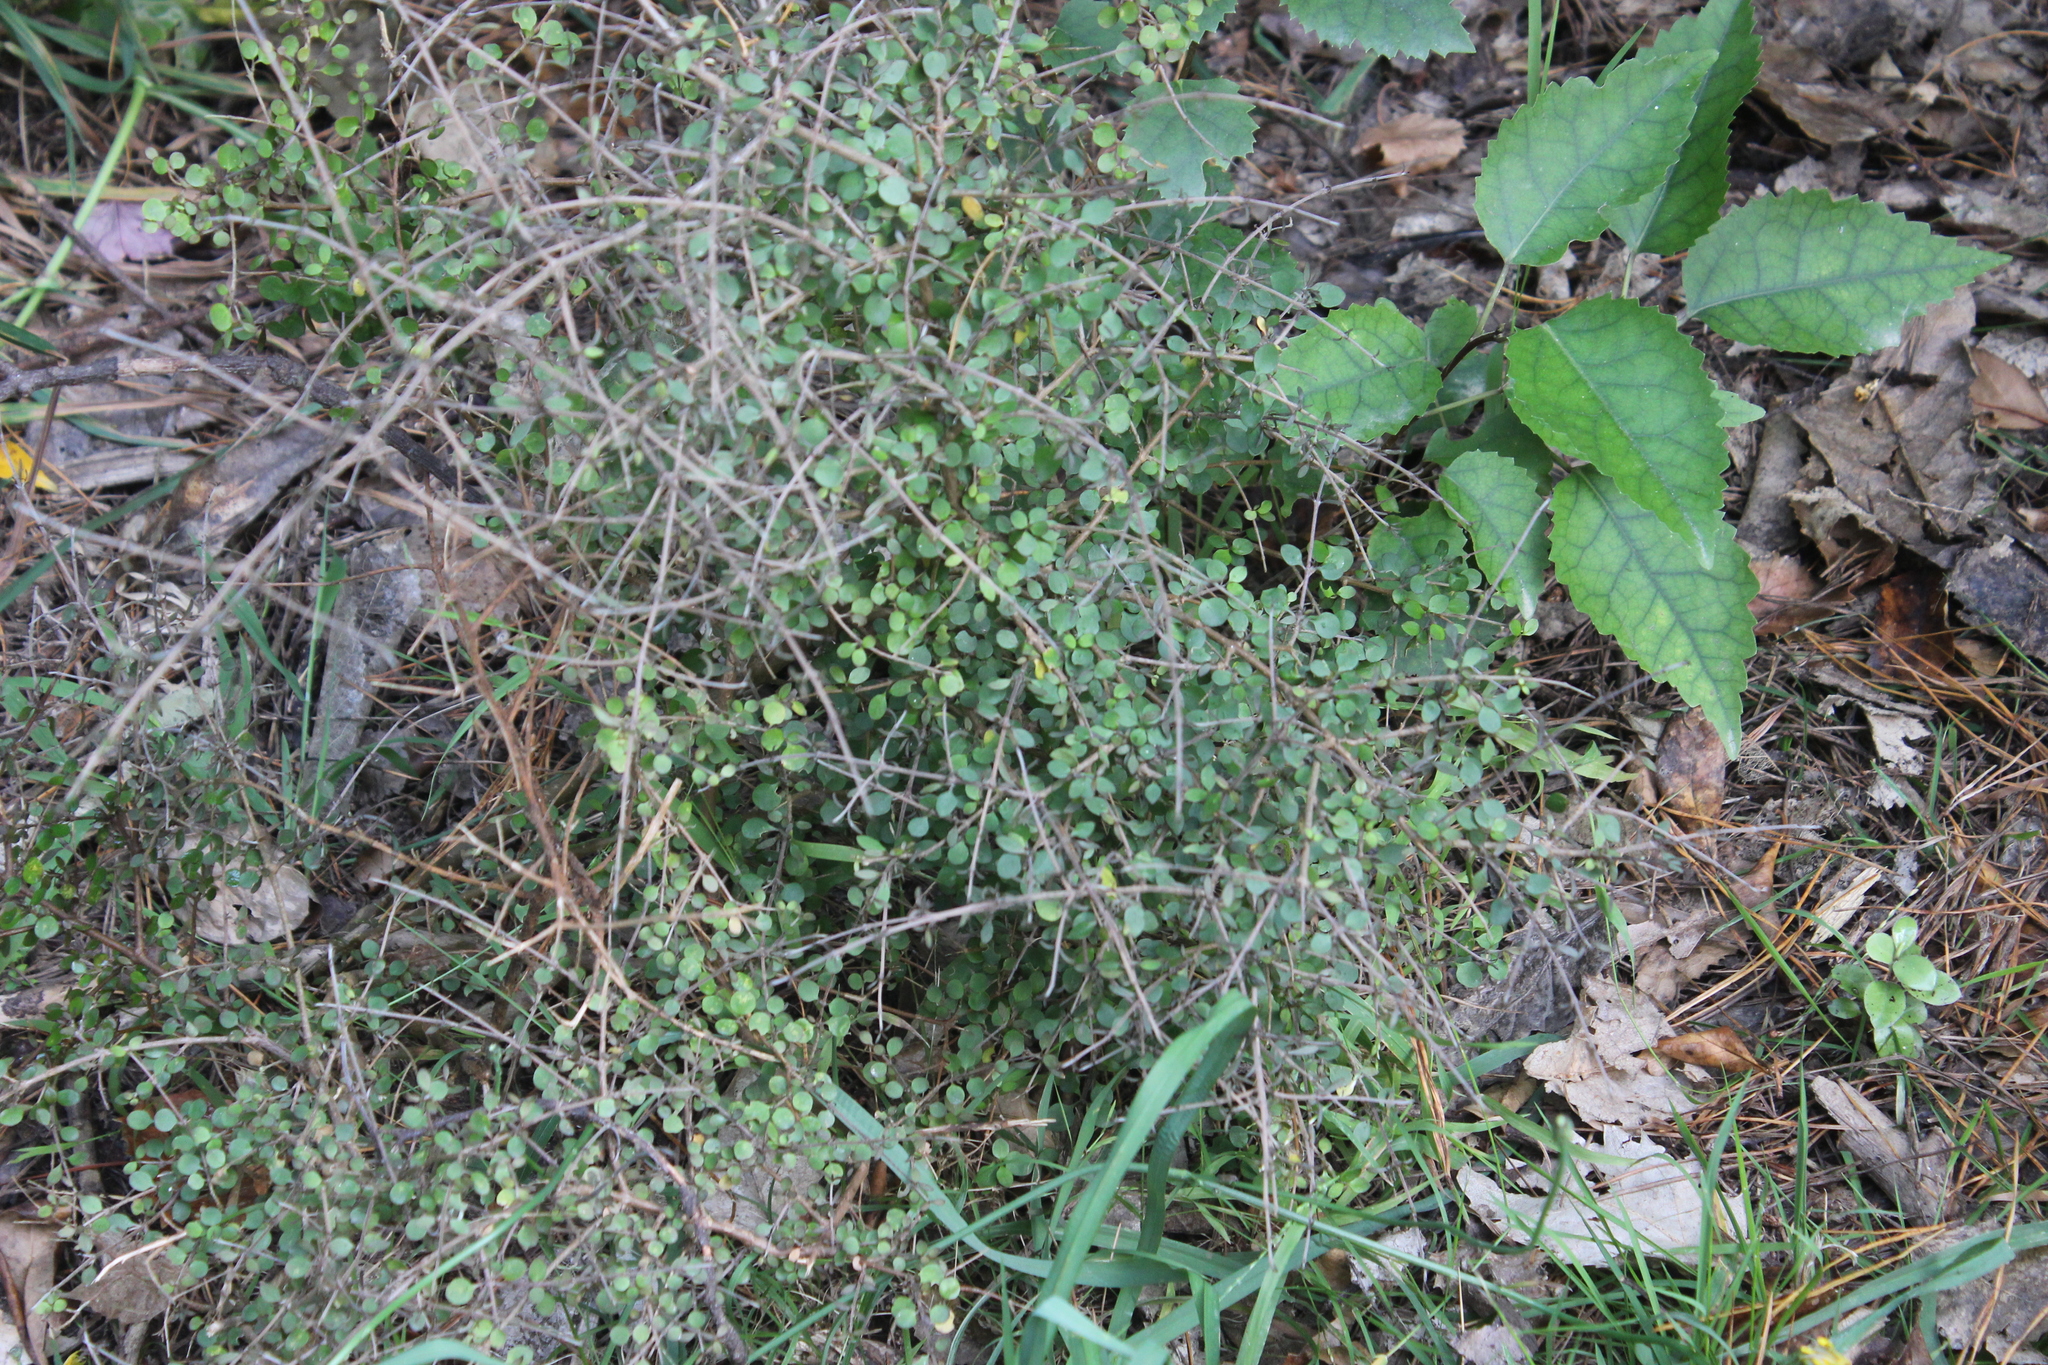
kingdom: Plantae
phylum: Tracheophyta
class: Magnoliopsida
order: Gentianales
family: Rubiaceae
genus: Coprosma
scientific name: Coprosma rhamnoides
